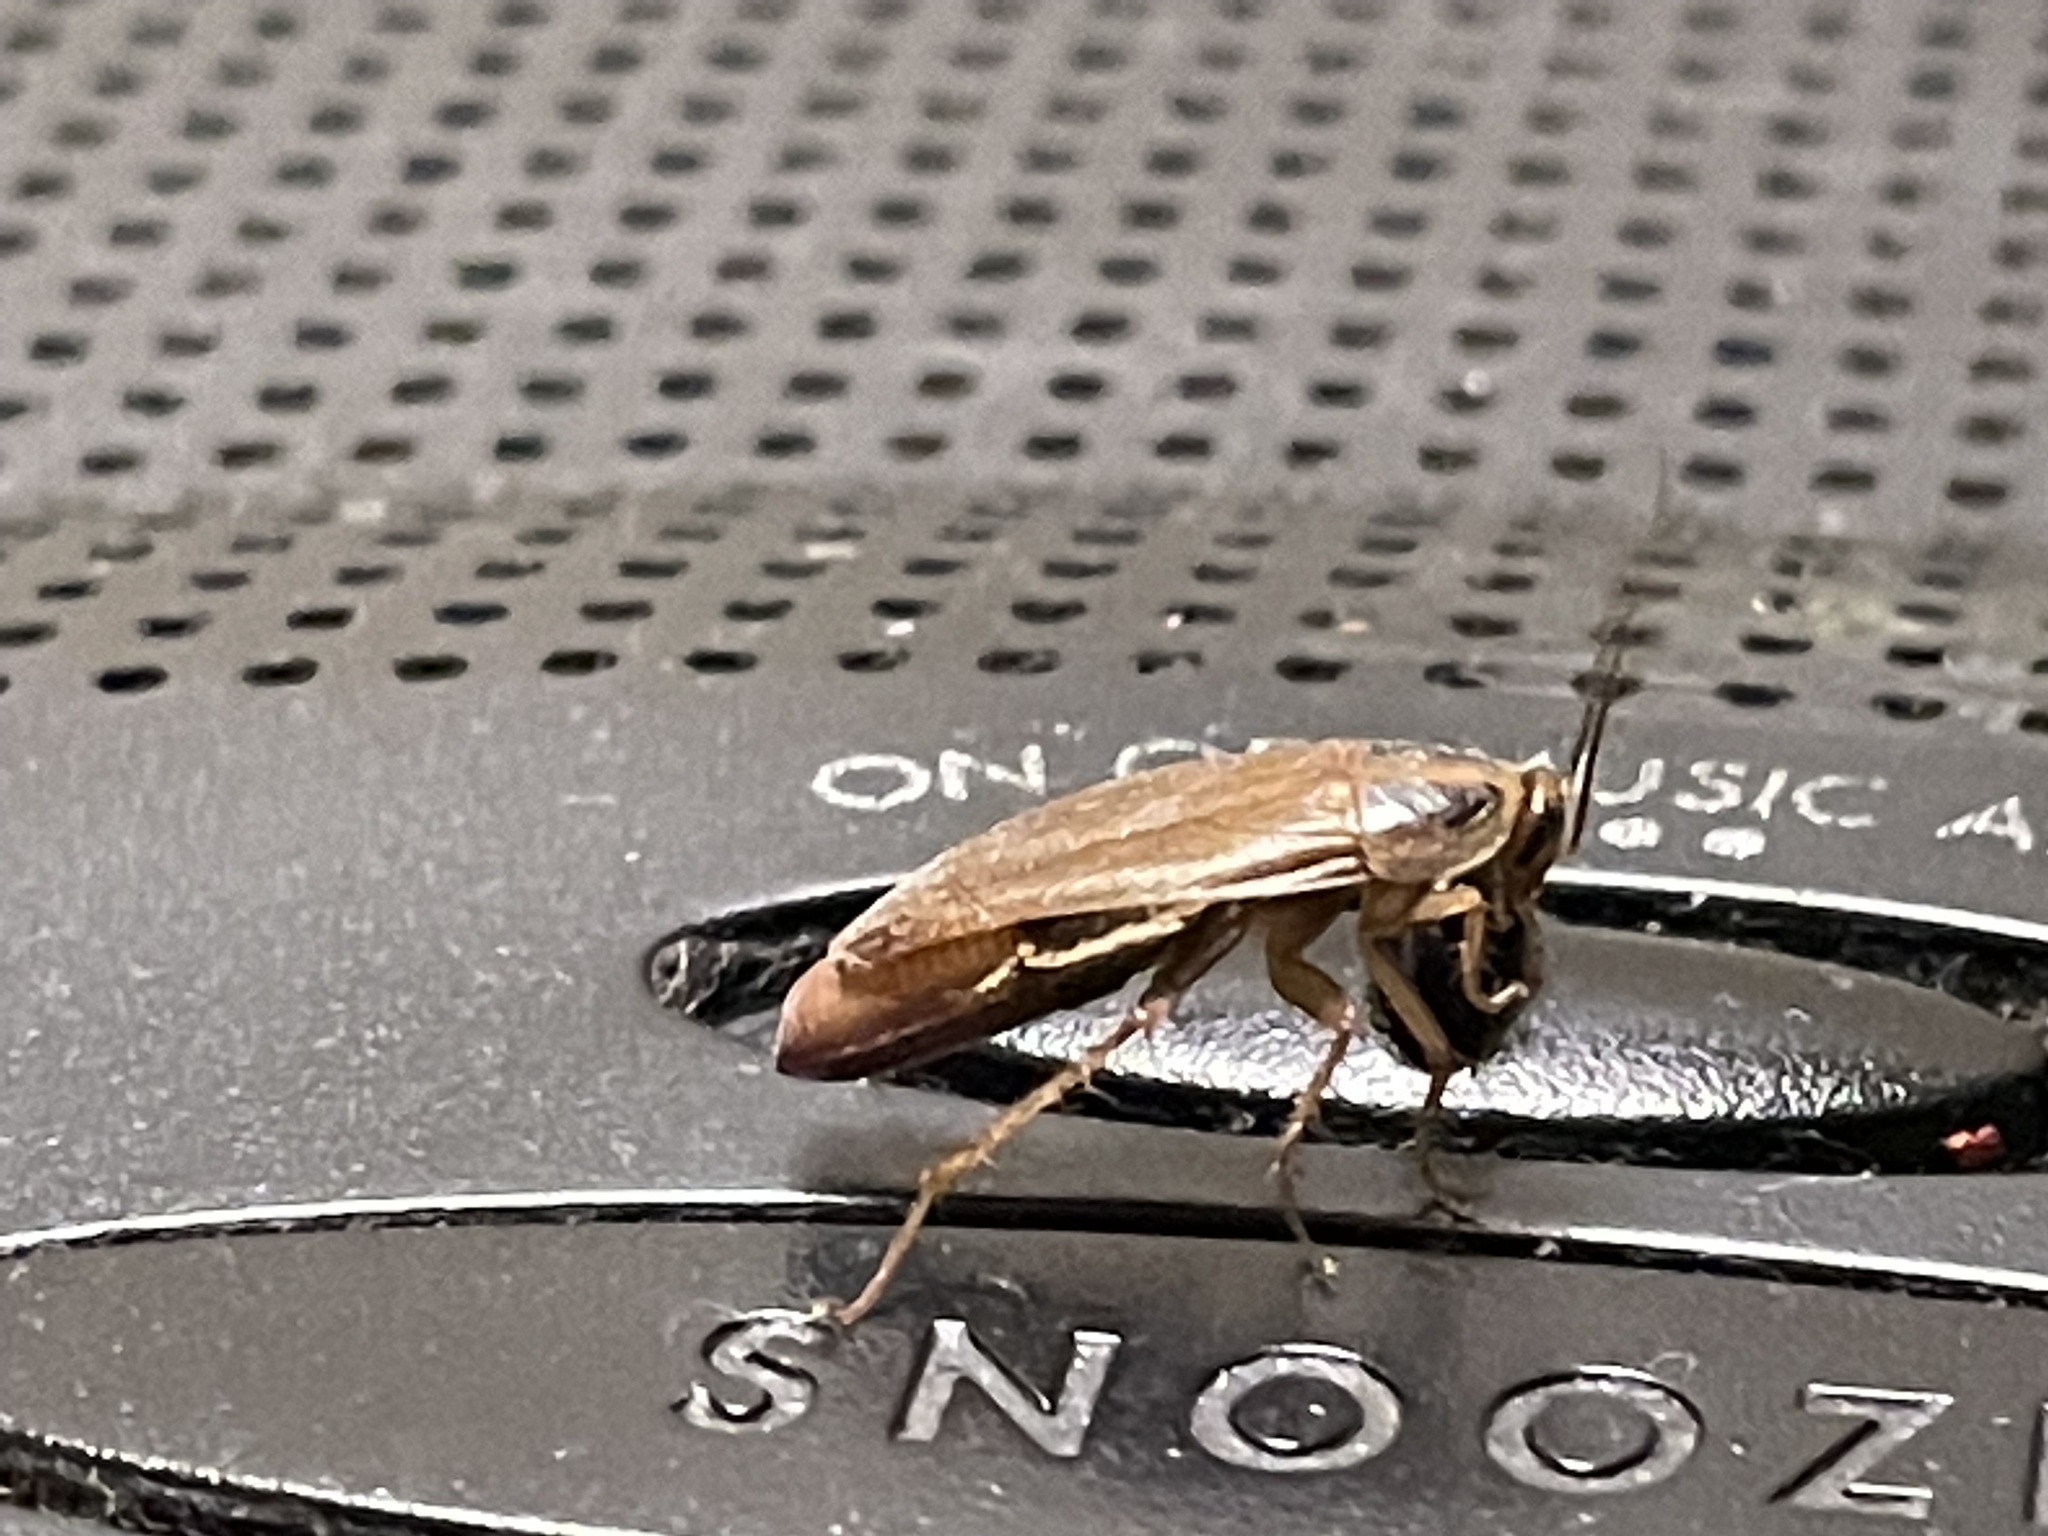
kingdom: Animalia
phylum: Arthropoda
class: Insecta
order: Blattodea
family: Ectobiidae
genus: Blattella
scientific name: Blattella germanica
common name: German cockroach
